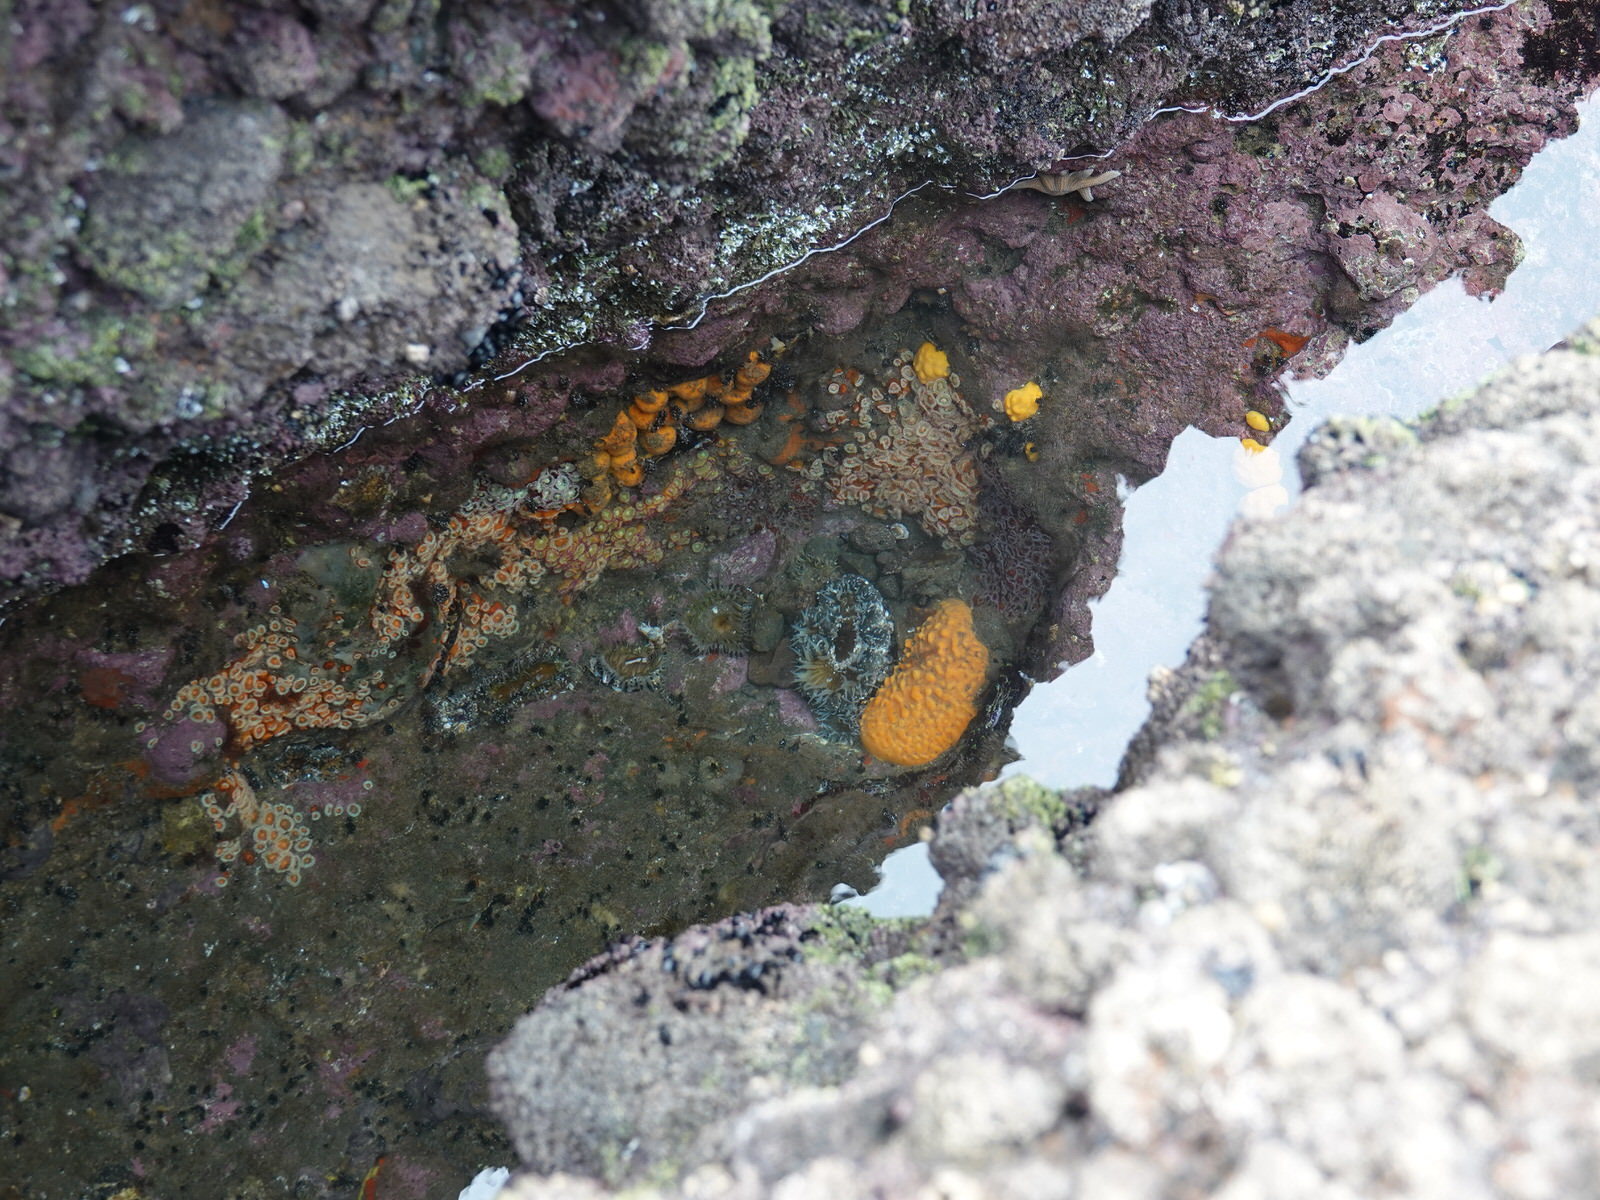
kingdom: Animalia
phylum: Cnidaria
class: Anthozoa
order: Corallimorpharia
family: Corallimorphidae
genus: Corynactis
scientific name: Corynactis australis
